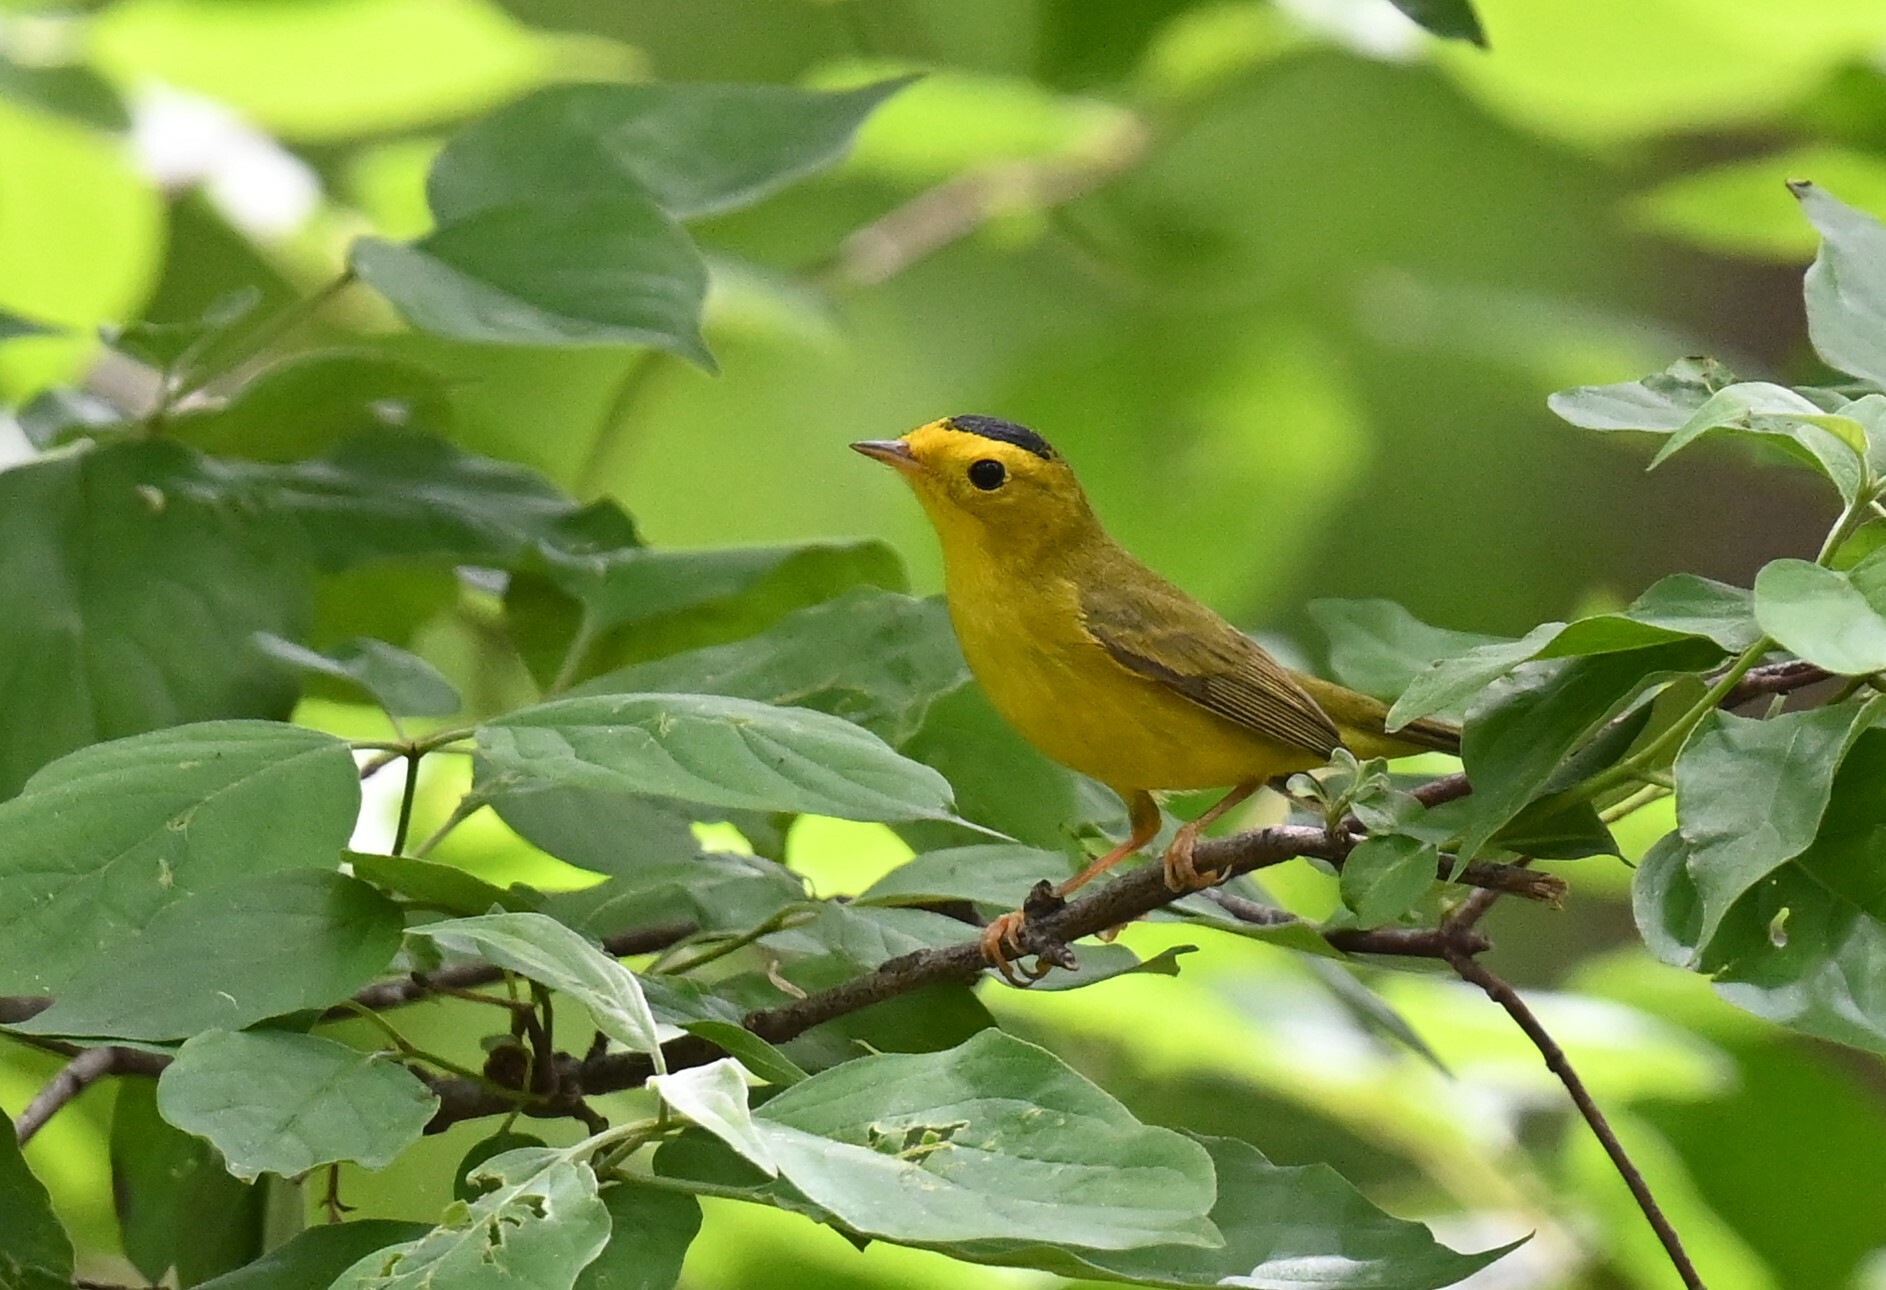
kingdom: Animalia
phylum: Chordata
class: Aves
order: Passeriformes
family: Parulidae
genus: Cardellina
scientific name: Cardellina pusilla
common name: Wilson's warbler
